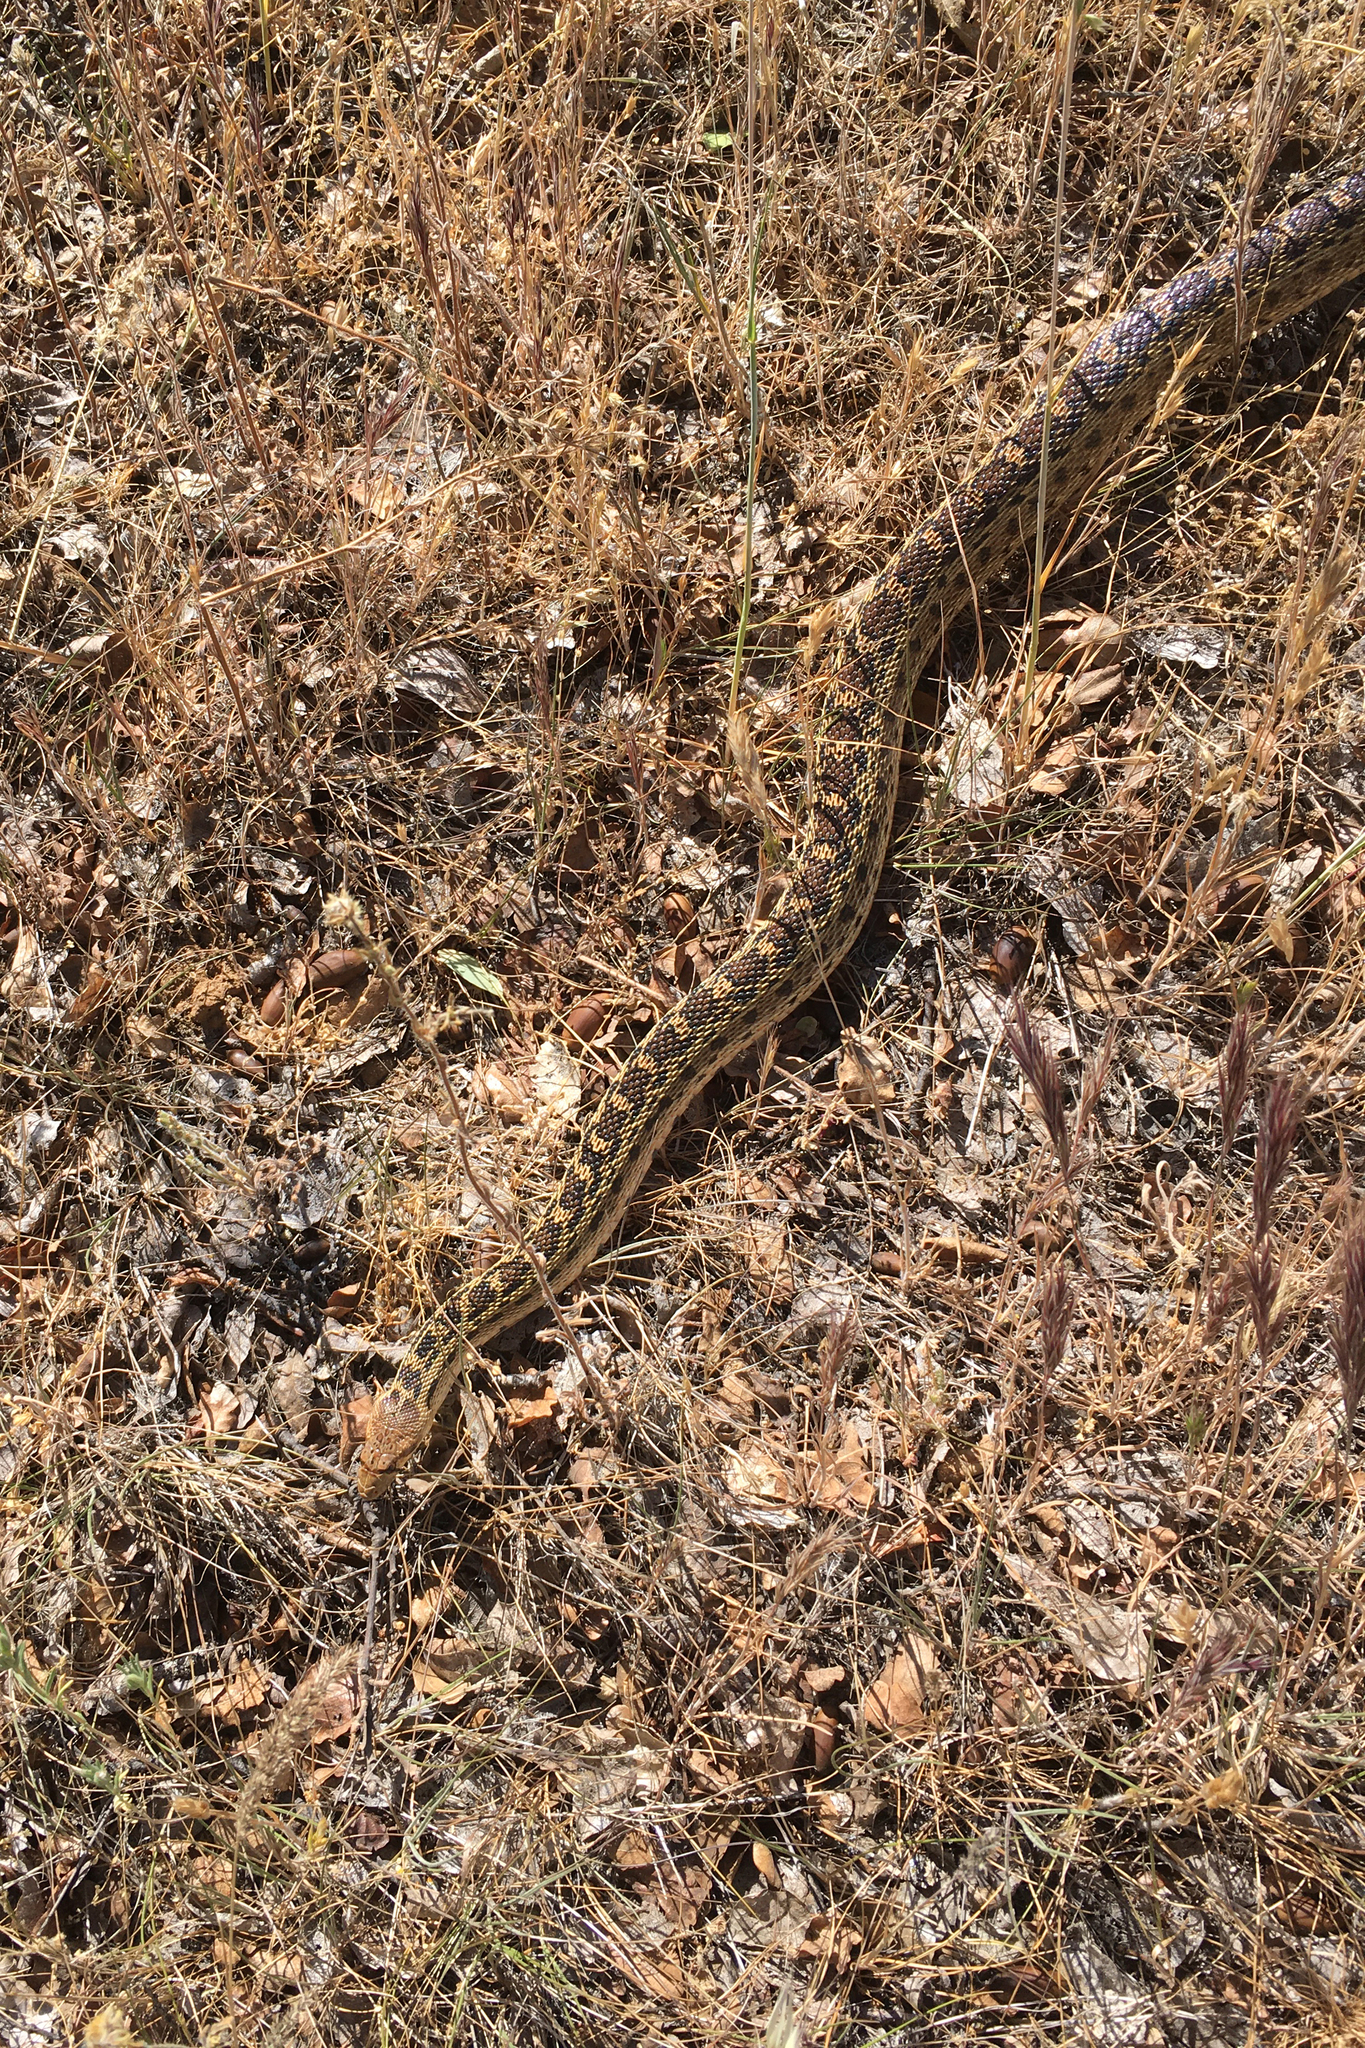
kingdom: Animalia
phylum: Chordata
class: Squamata
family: Colubridae
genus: Pituophis
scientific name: Pituophis catenifer
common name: Gopher snake
